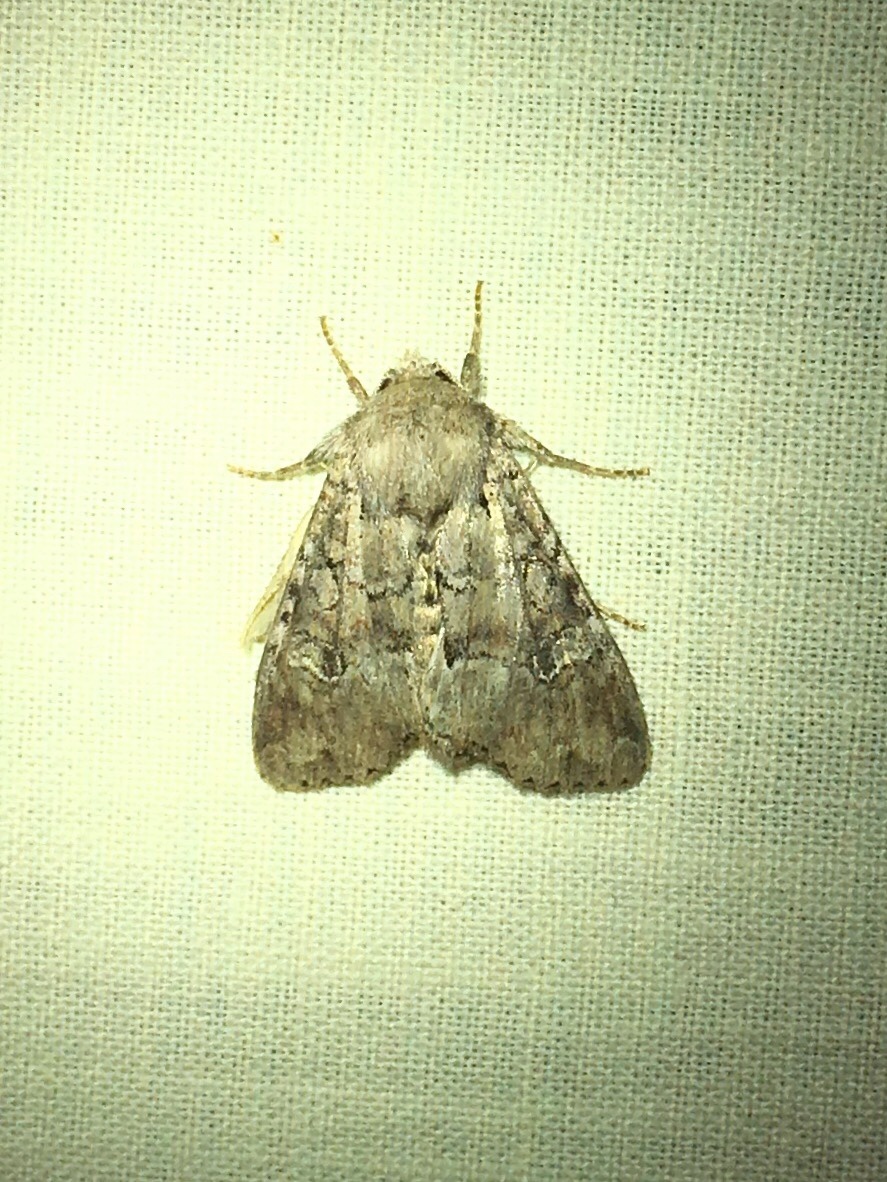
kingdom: Animalia
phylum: Arthropoda
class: Insecta
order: Lepidoptera
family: Noctuidae
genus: Apamea
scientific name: Apamea sordens
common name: Rustic shoulder-knot
